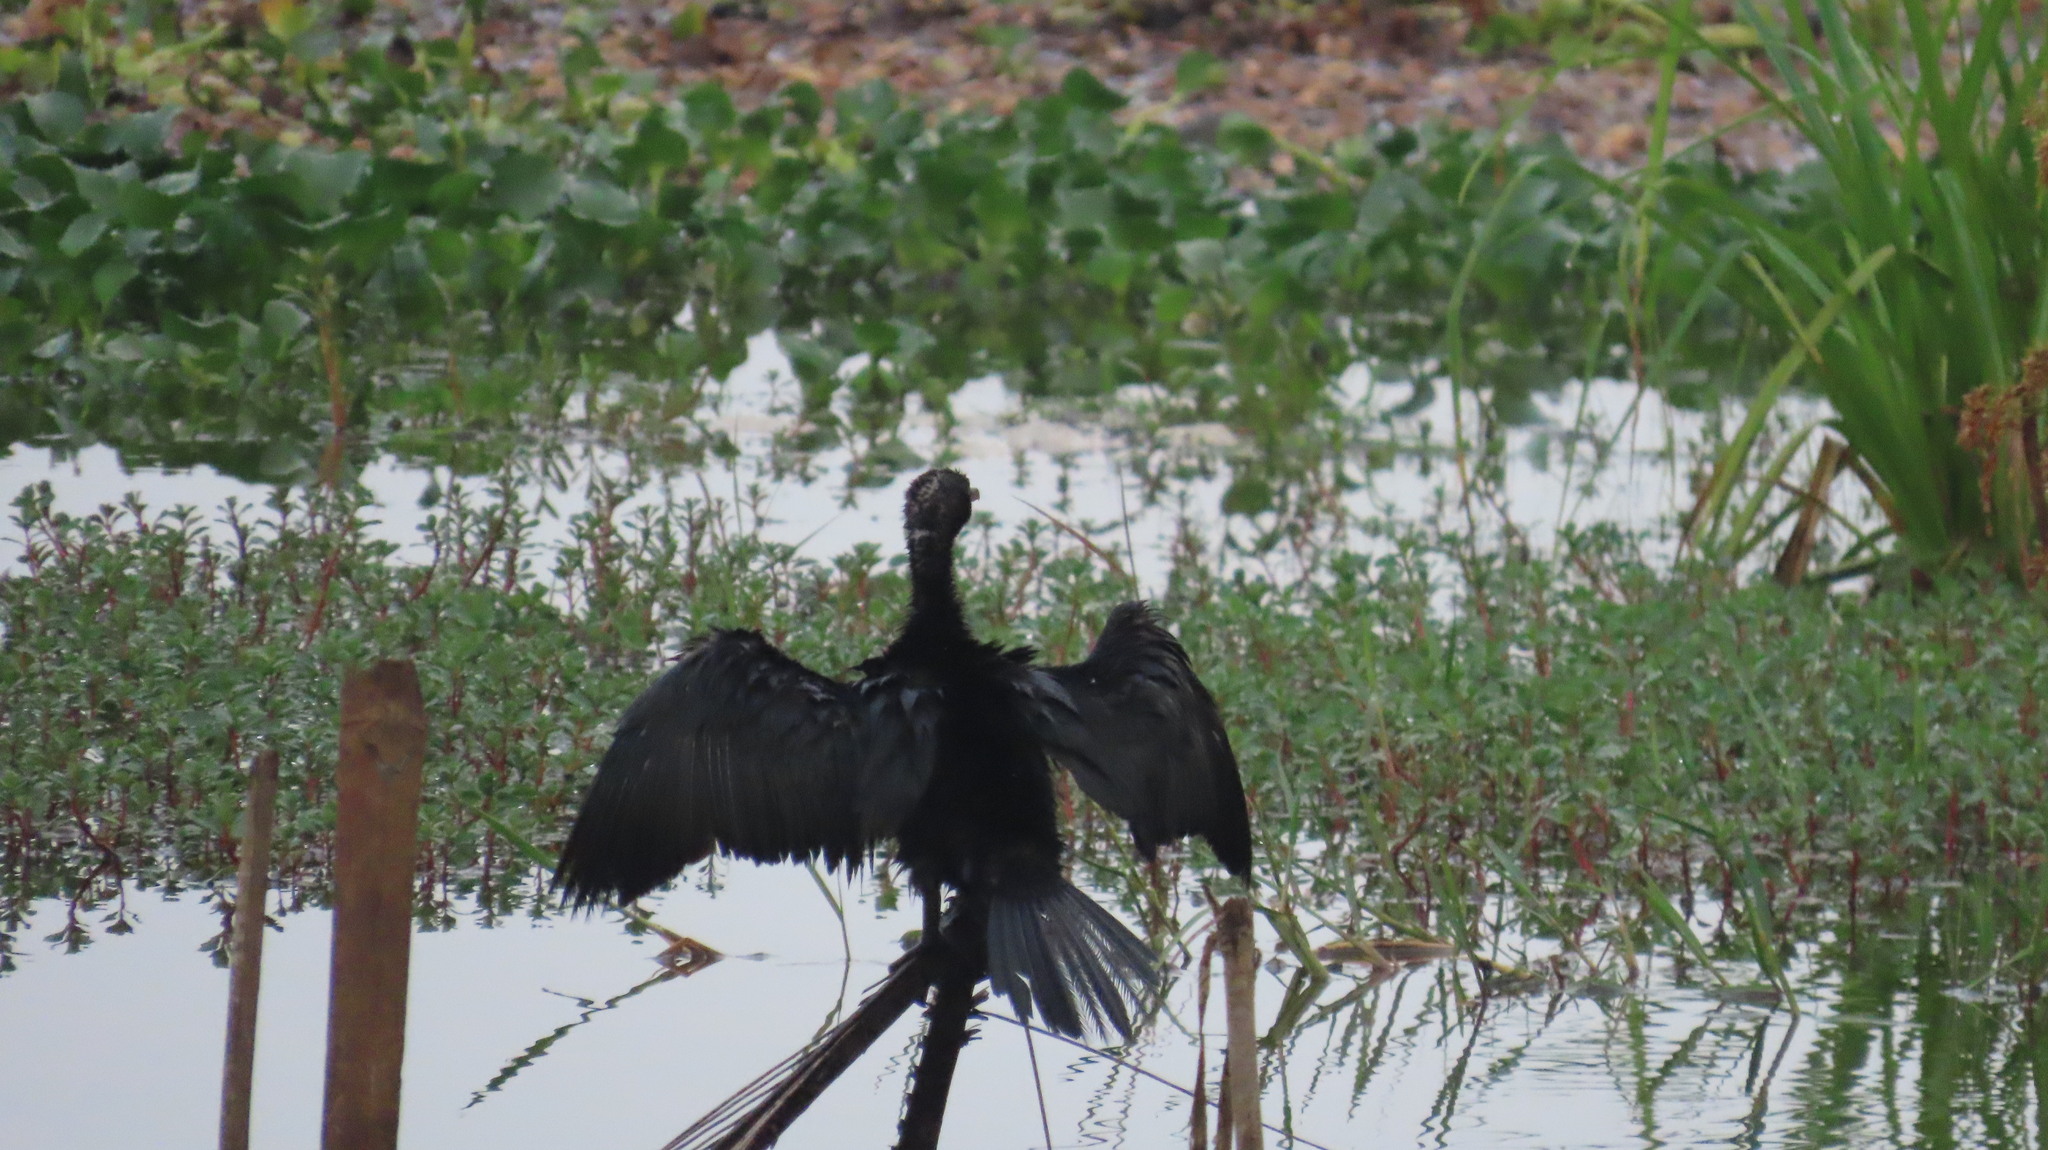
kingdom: Animalia
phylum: Chordata
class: Aves
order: Suliformes
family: Phalacrocoracidae
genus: Microcarbo
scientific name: Microcarbo niger
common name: Little cormorant
